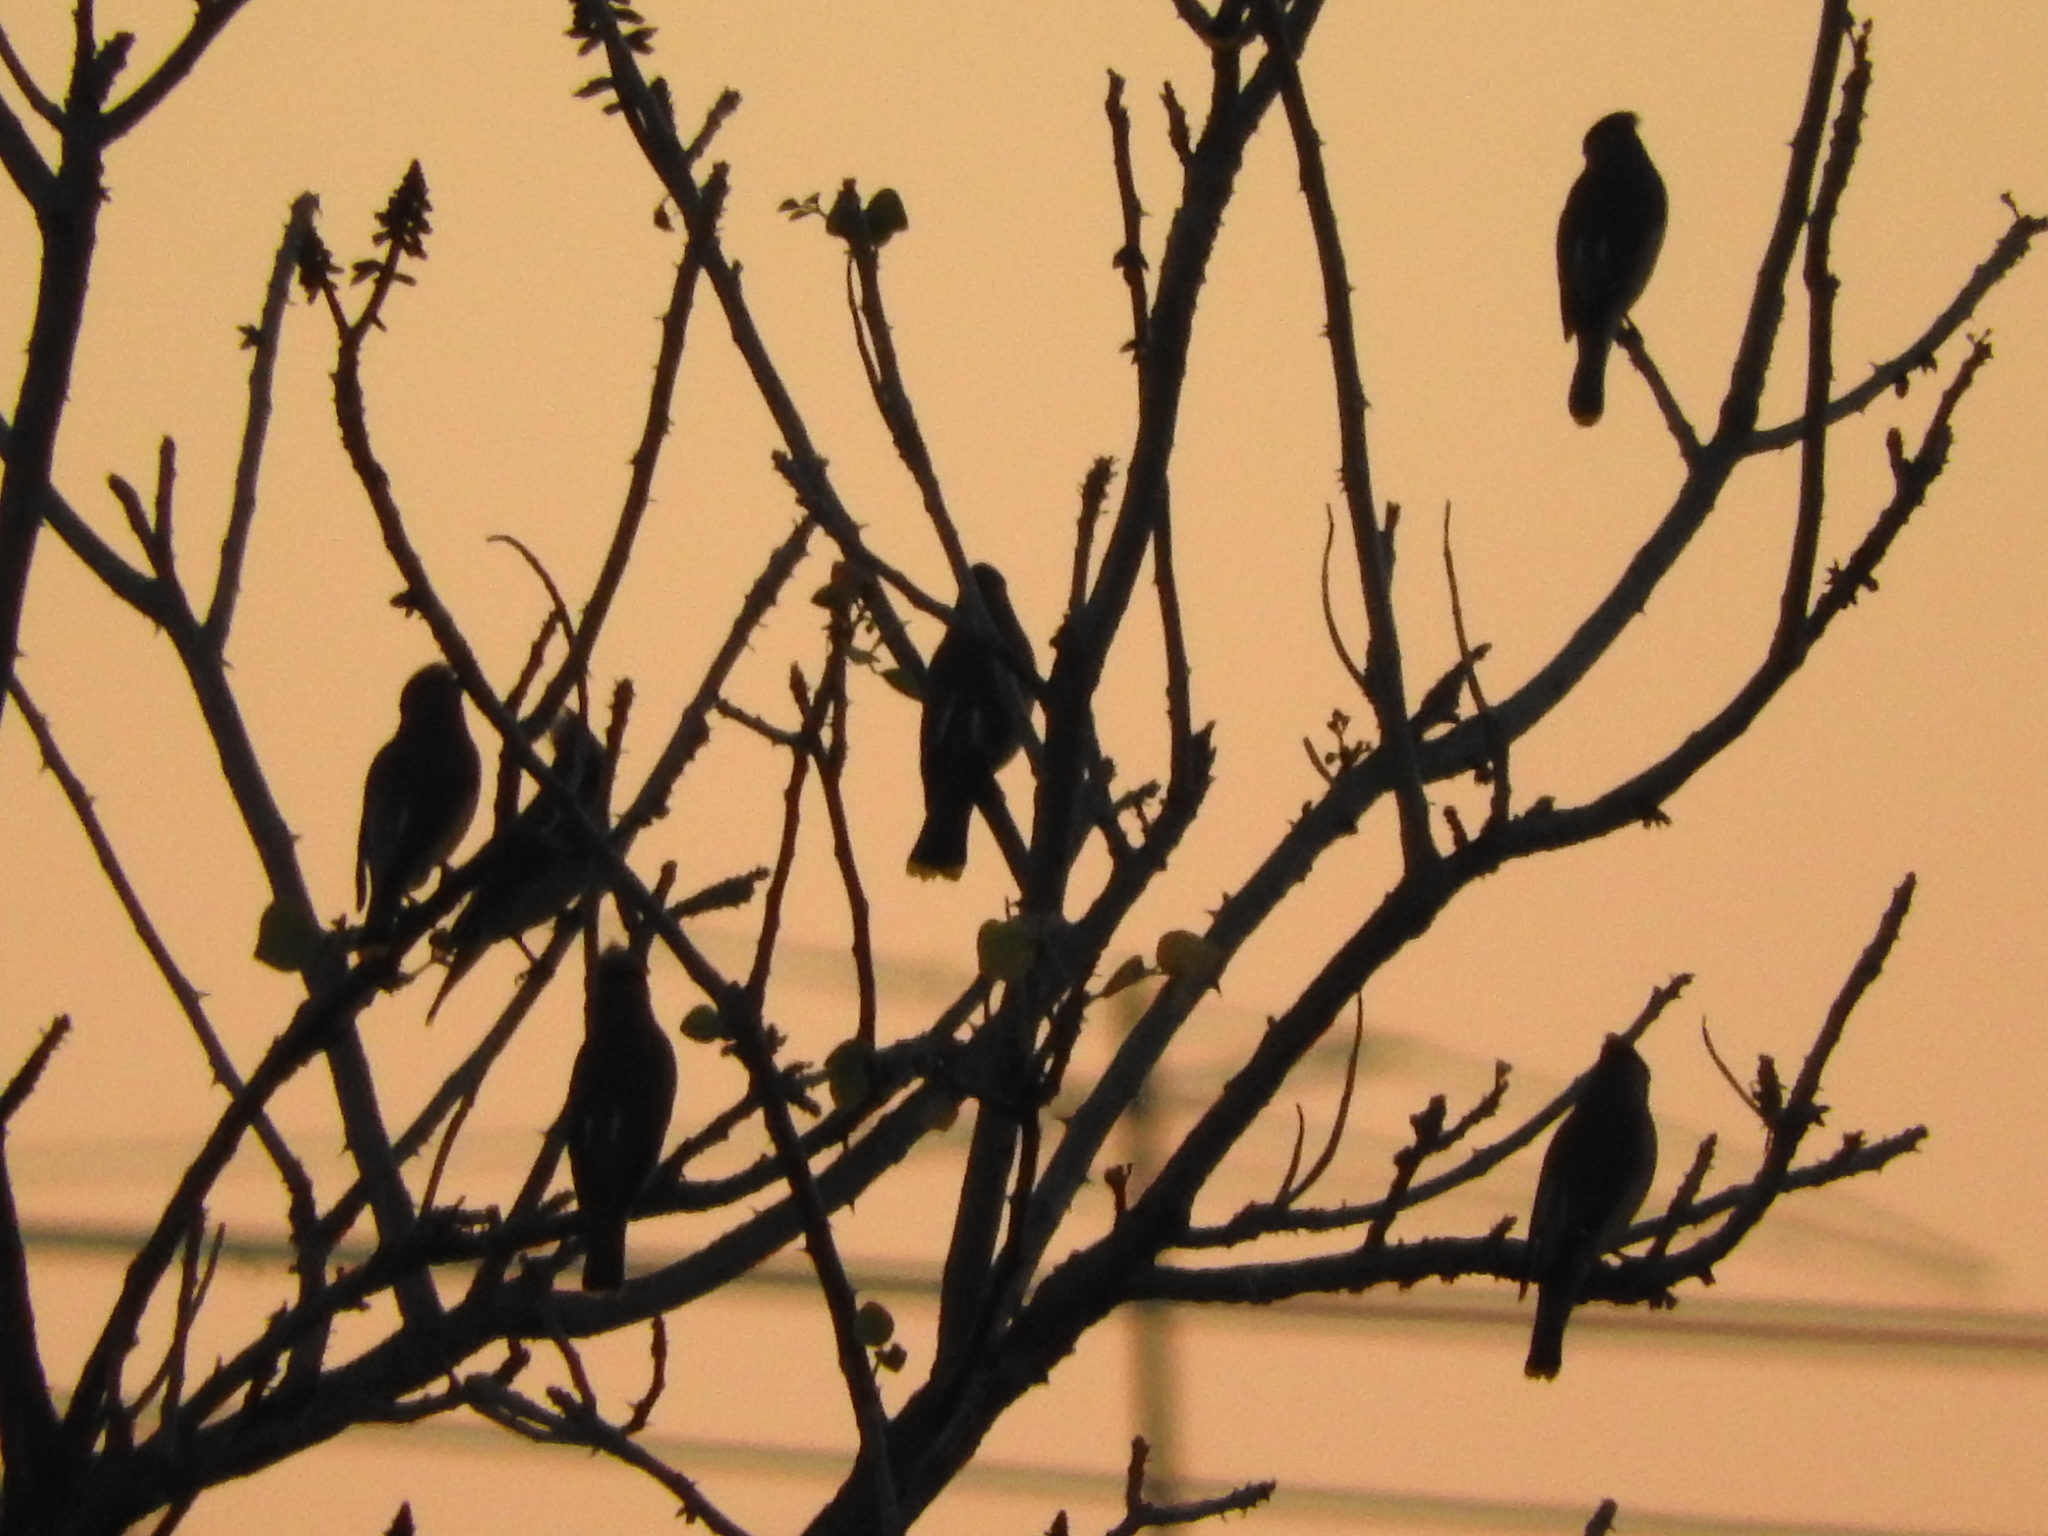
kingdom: Animalia
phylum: Chordata
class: Aves
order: Passeriformes
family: Bombycillidae
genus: Bombycilla
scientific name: Bombycilla cedrorum
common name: Cedar waxwing
